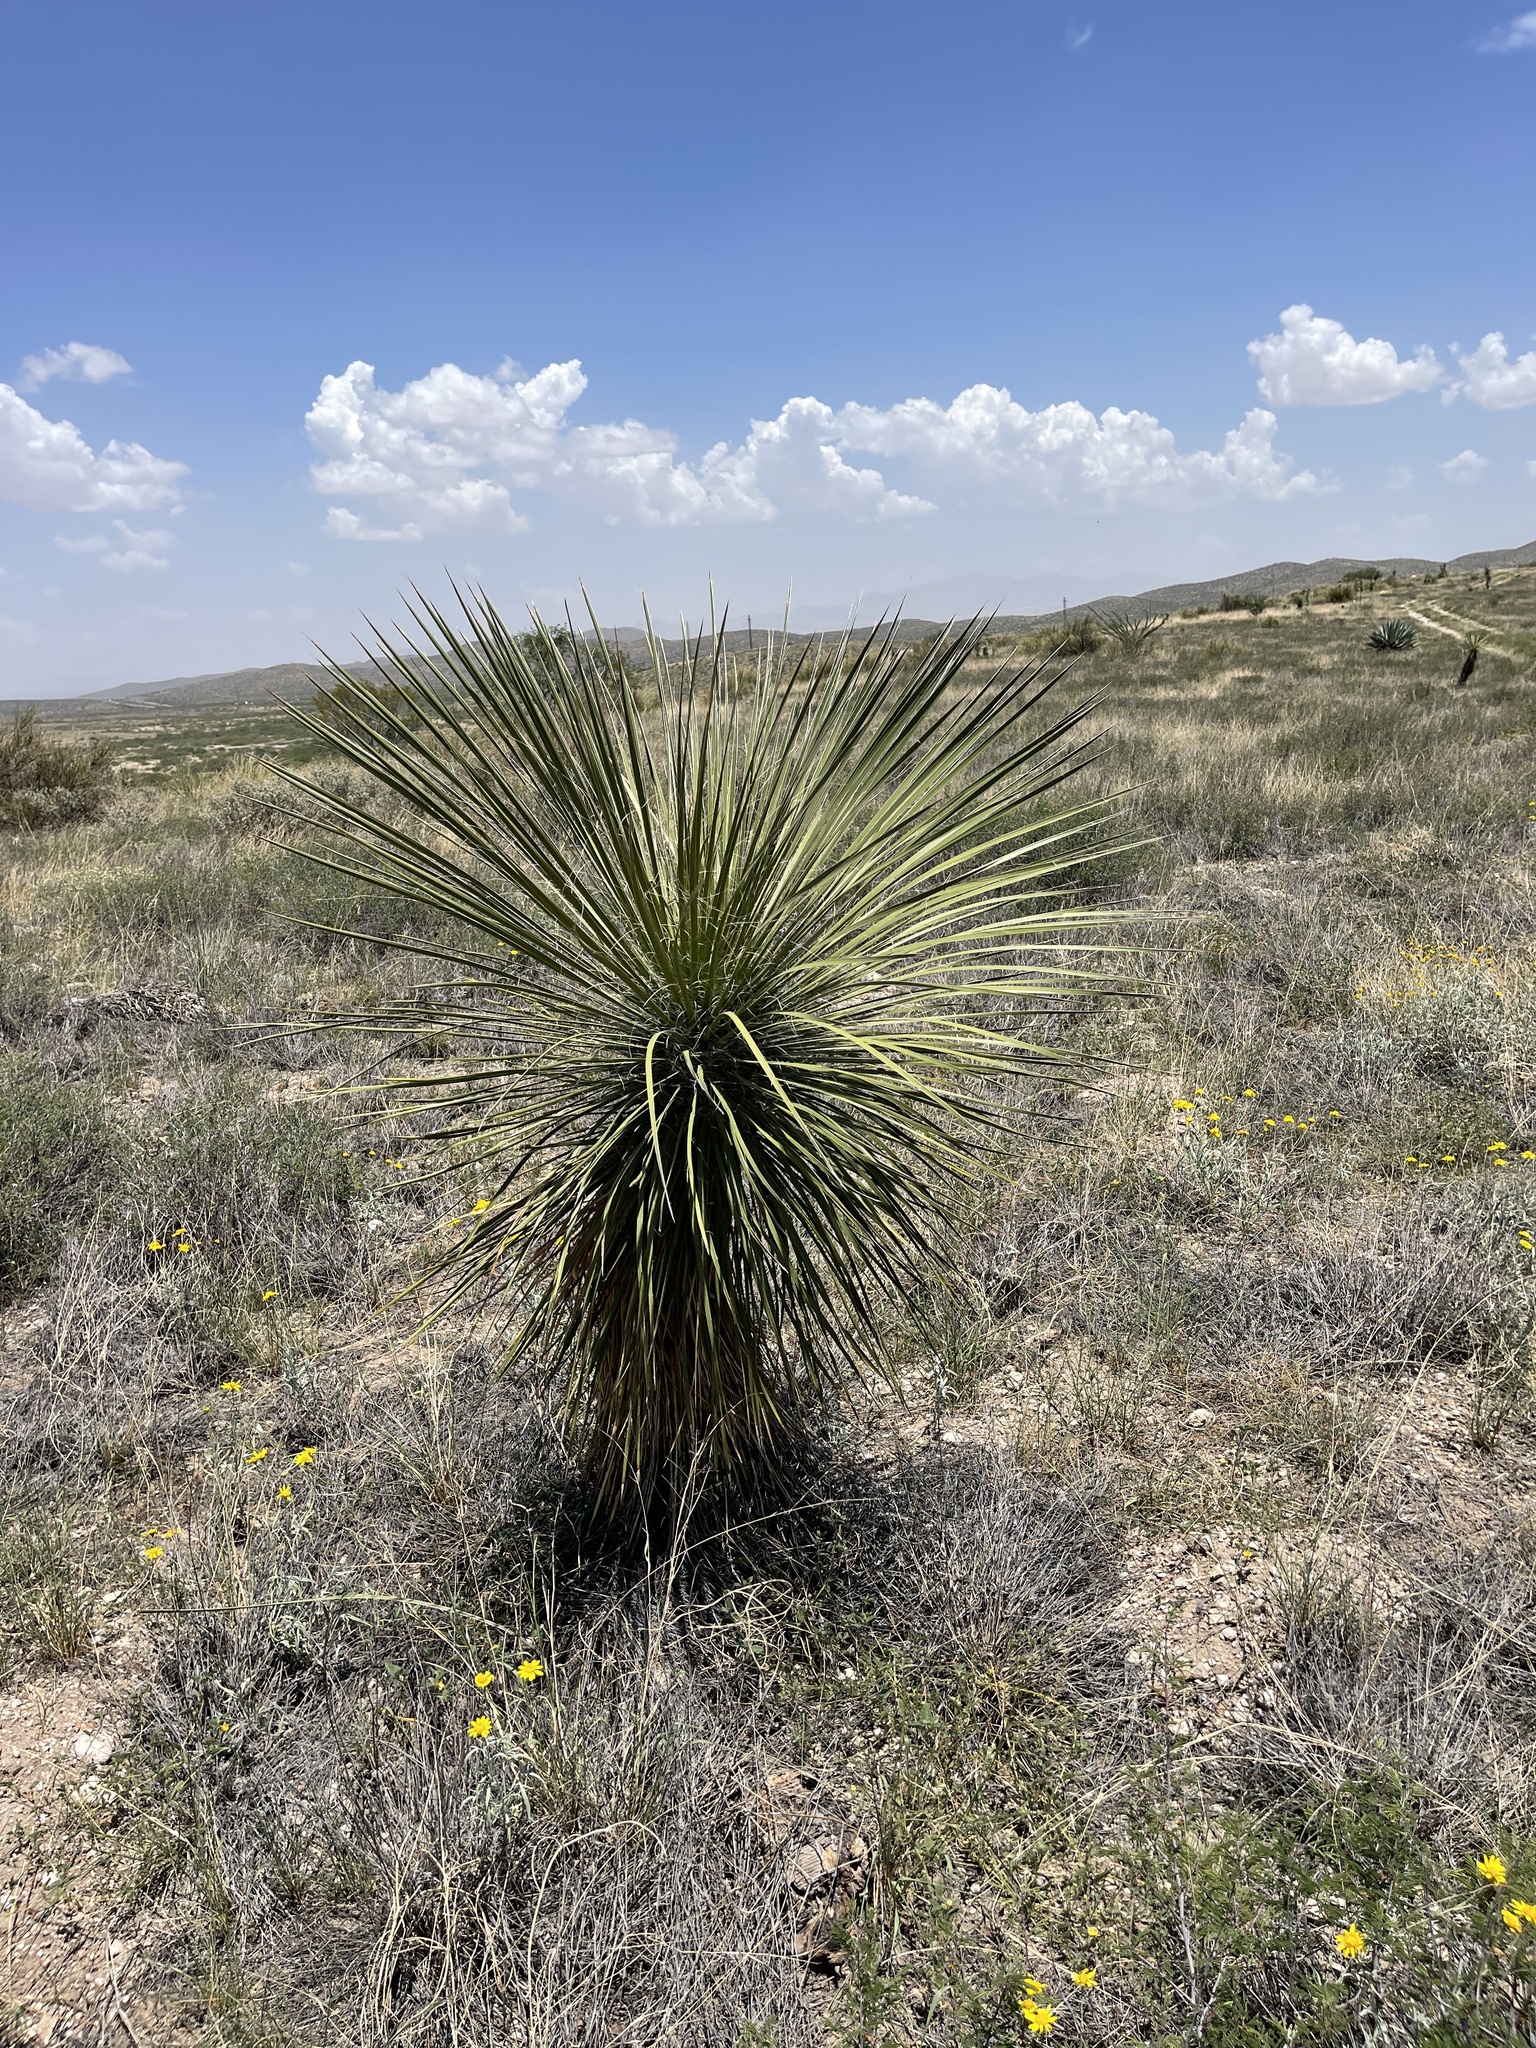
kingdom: Plantae
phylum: Tracheophyta
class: Liliopsida
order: Asparagales
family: Asparagaceae
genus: Yucca
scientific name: Yucca elata
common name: Palmella
